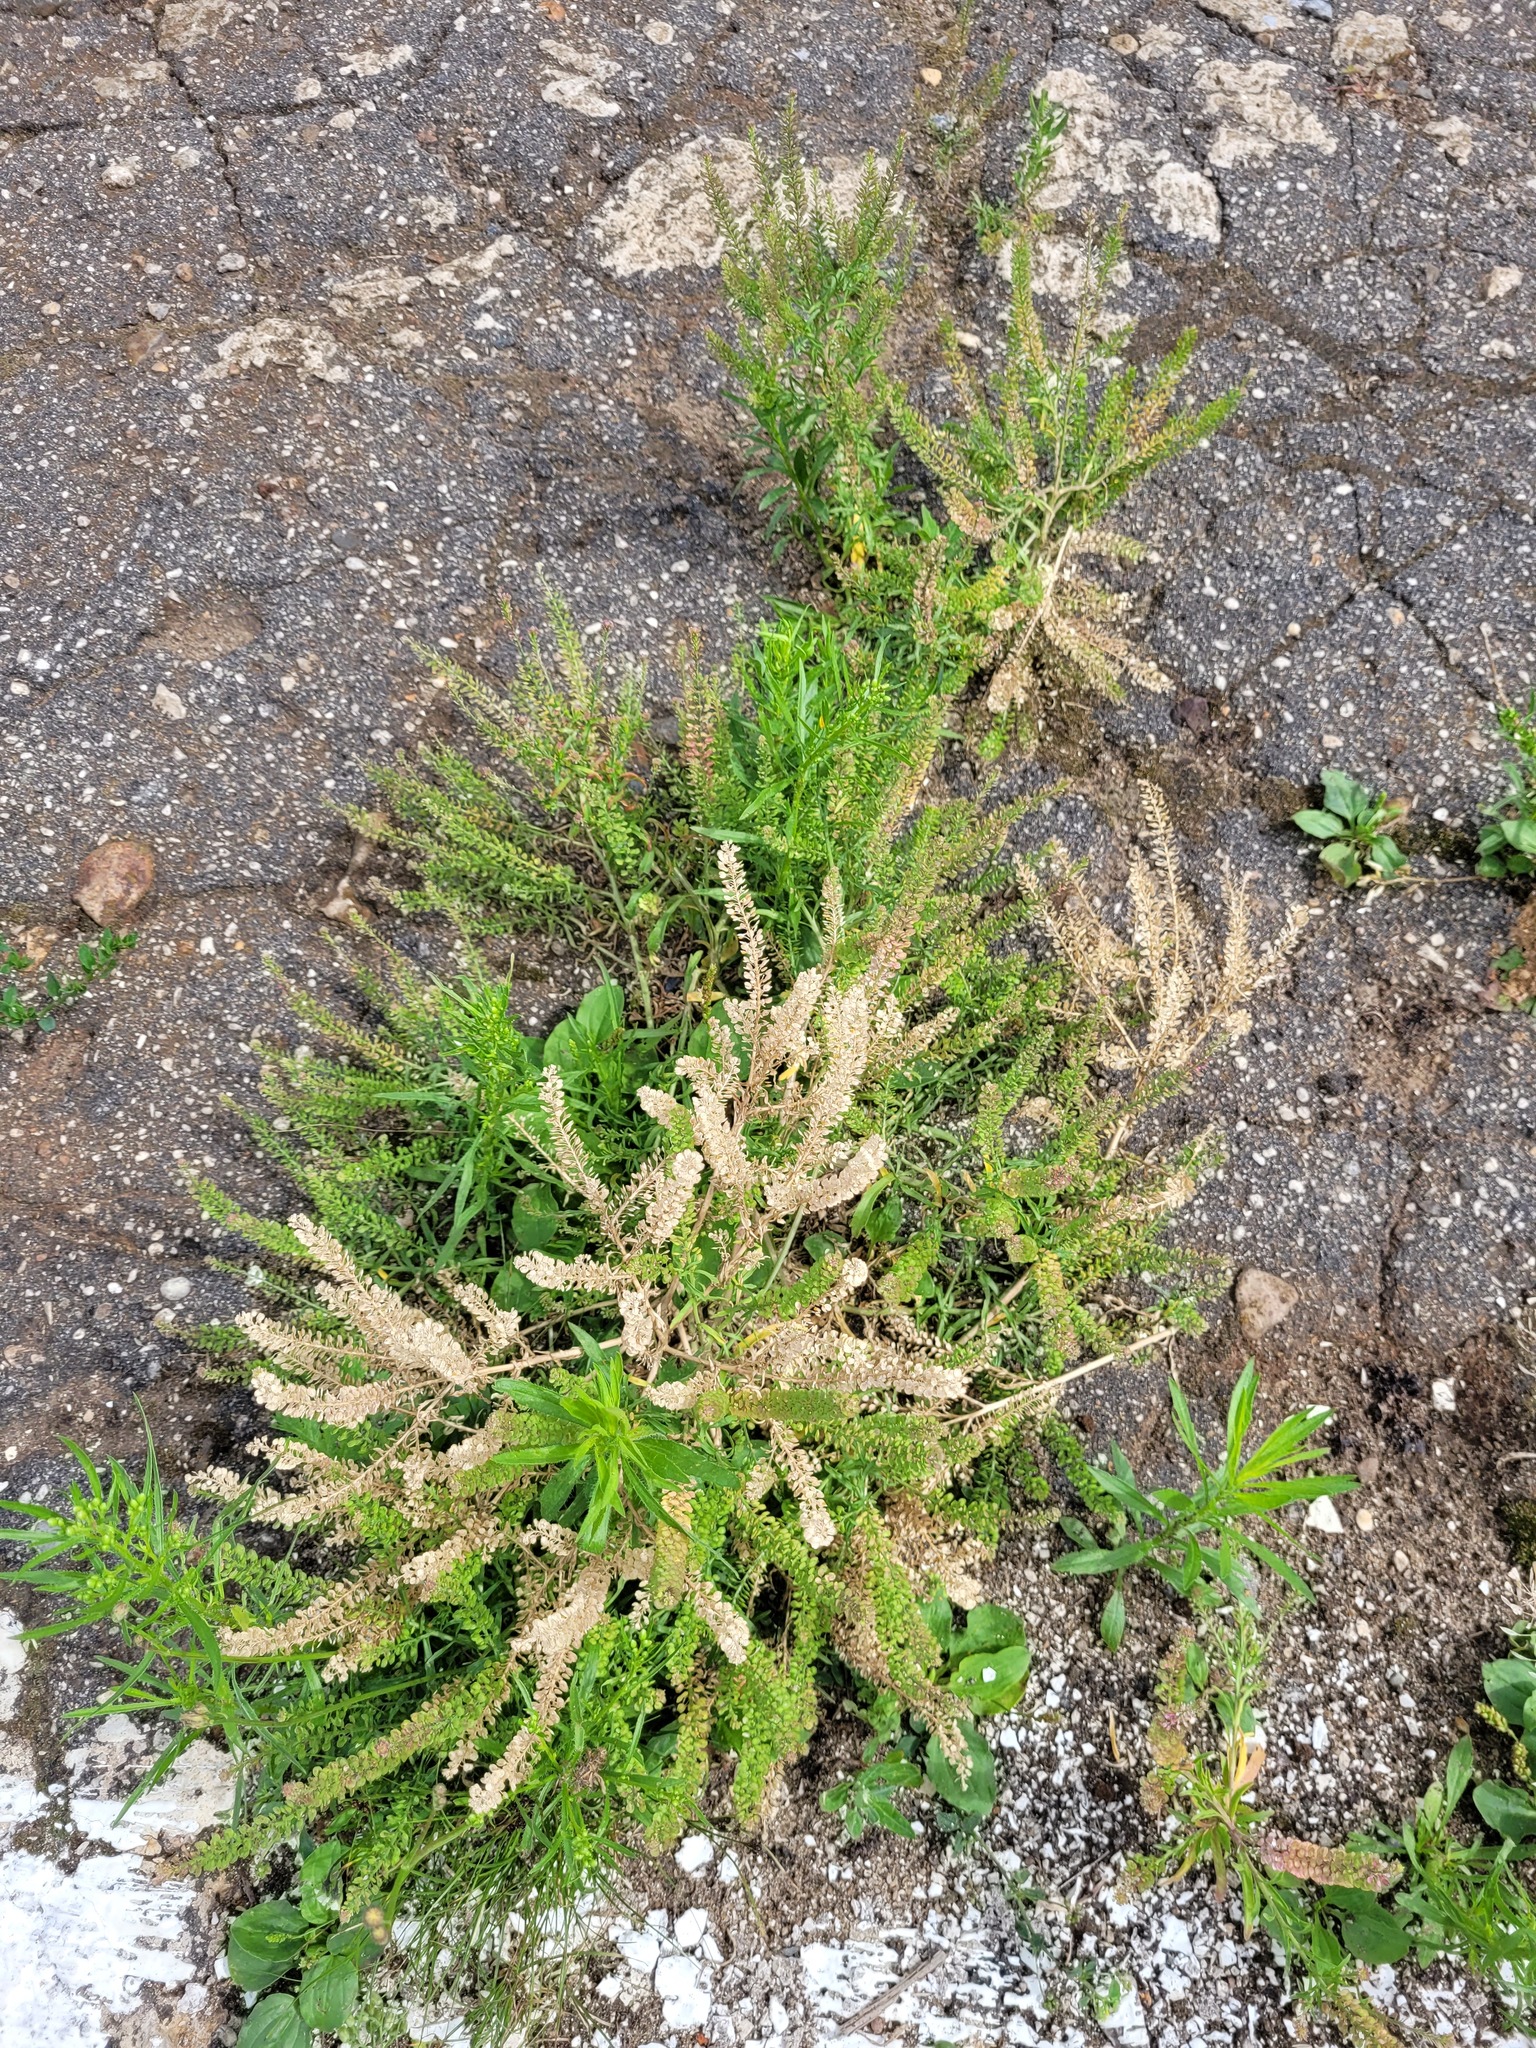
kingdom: Plantae
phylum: Tracheophyta
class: Magnoliopsida
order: Brassicales
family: Brassicaceae
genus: Lepidium
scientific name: Lepidium densiflorum
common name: Miner's pepperwort
